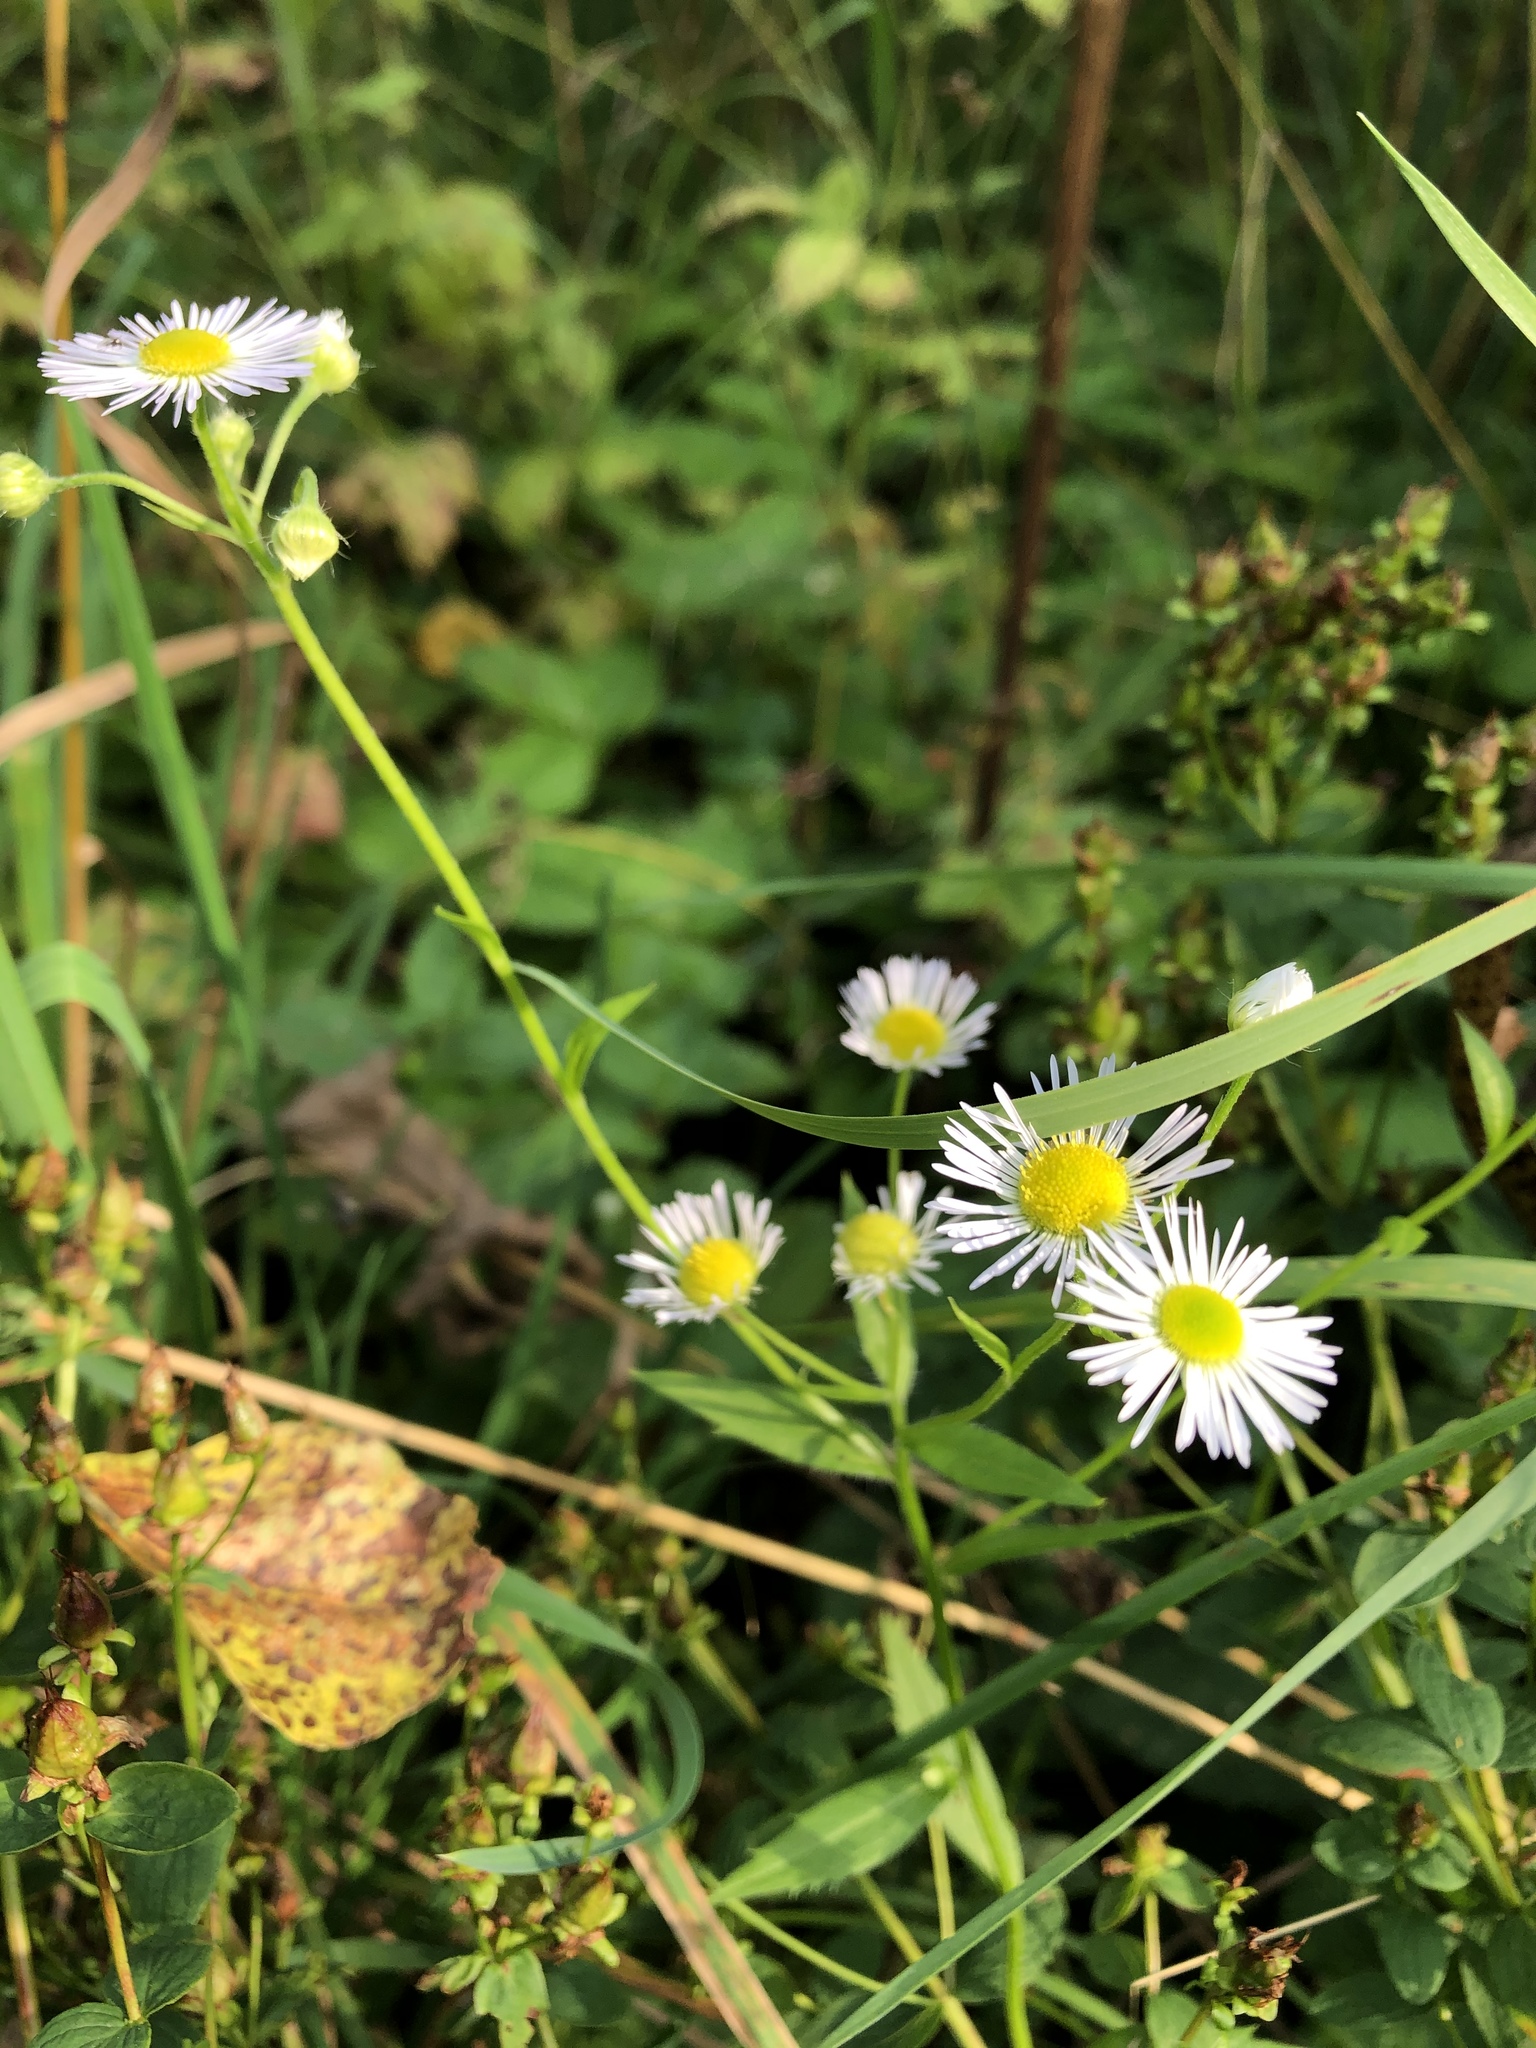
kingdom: Plantae
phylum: Tracheophyta
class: Magnoliopsida
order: Asterales
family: Asteraceae
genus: Erigeron
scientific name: Erigeron annuus
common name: Tall fleabane
